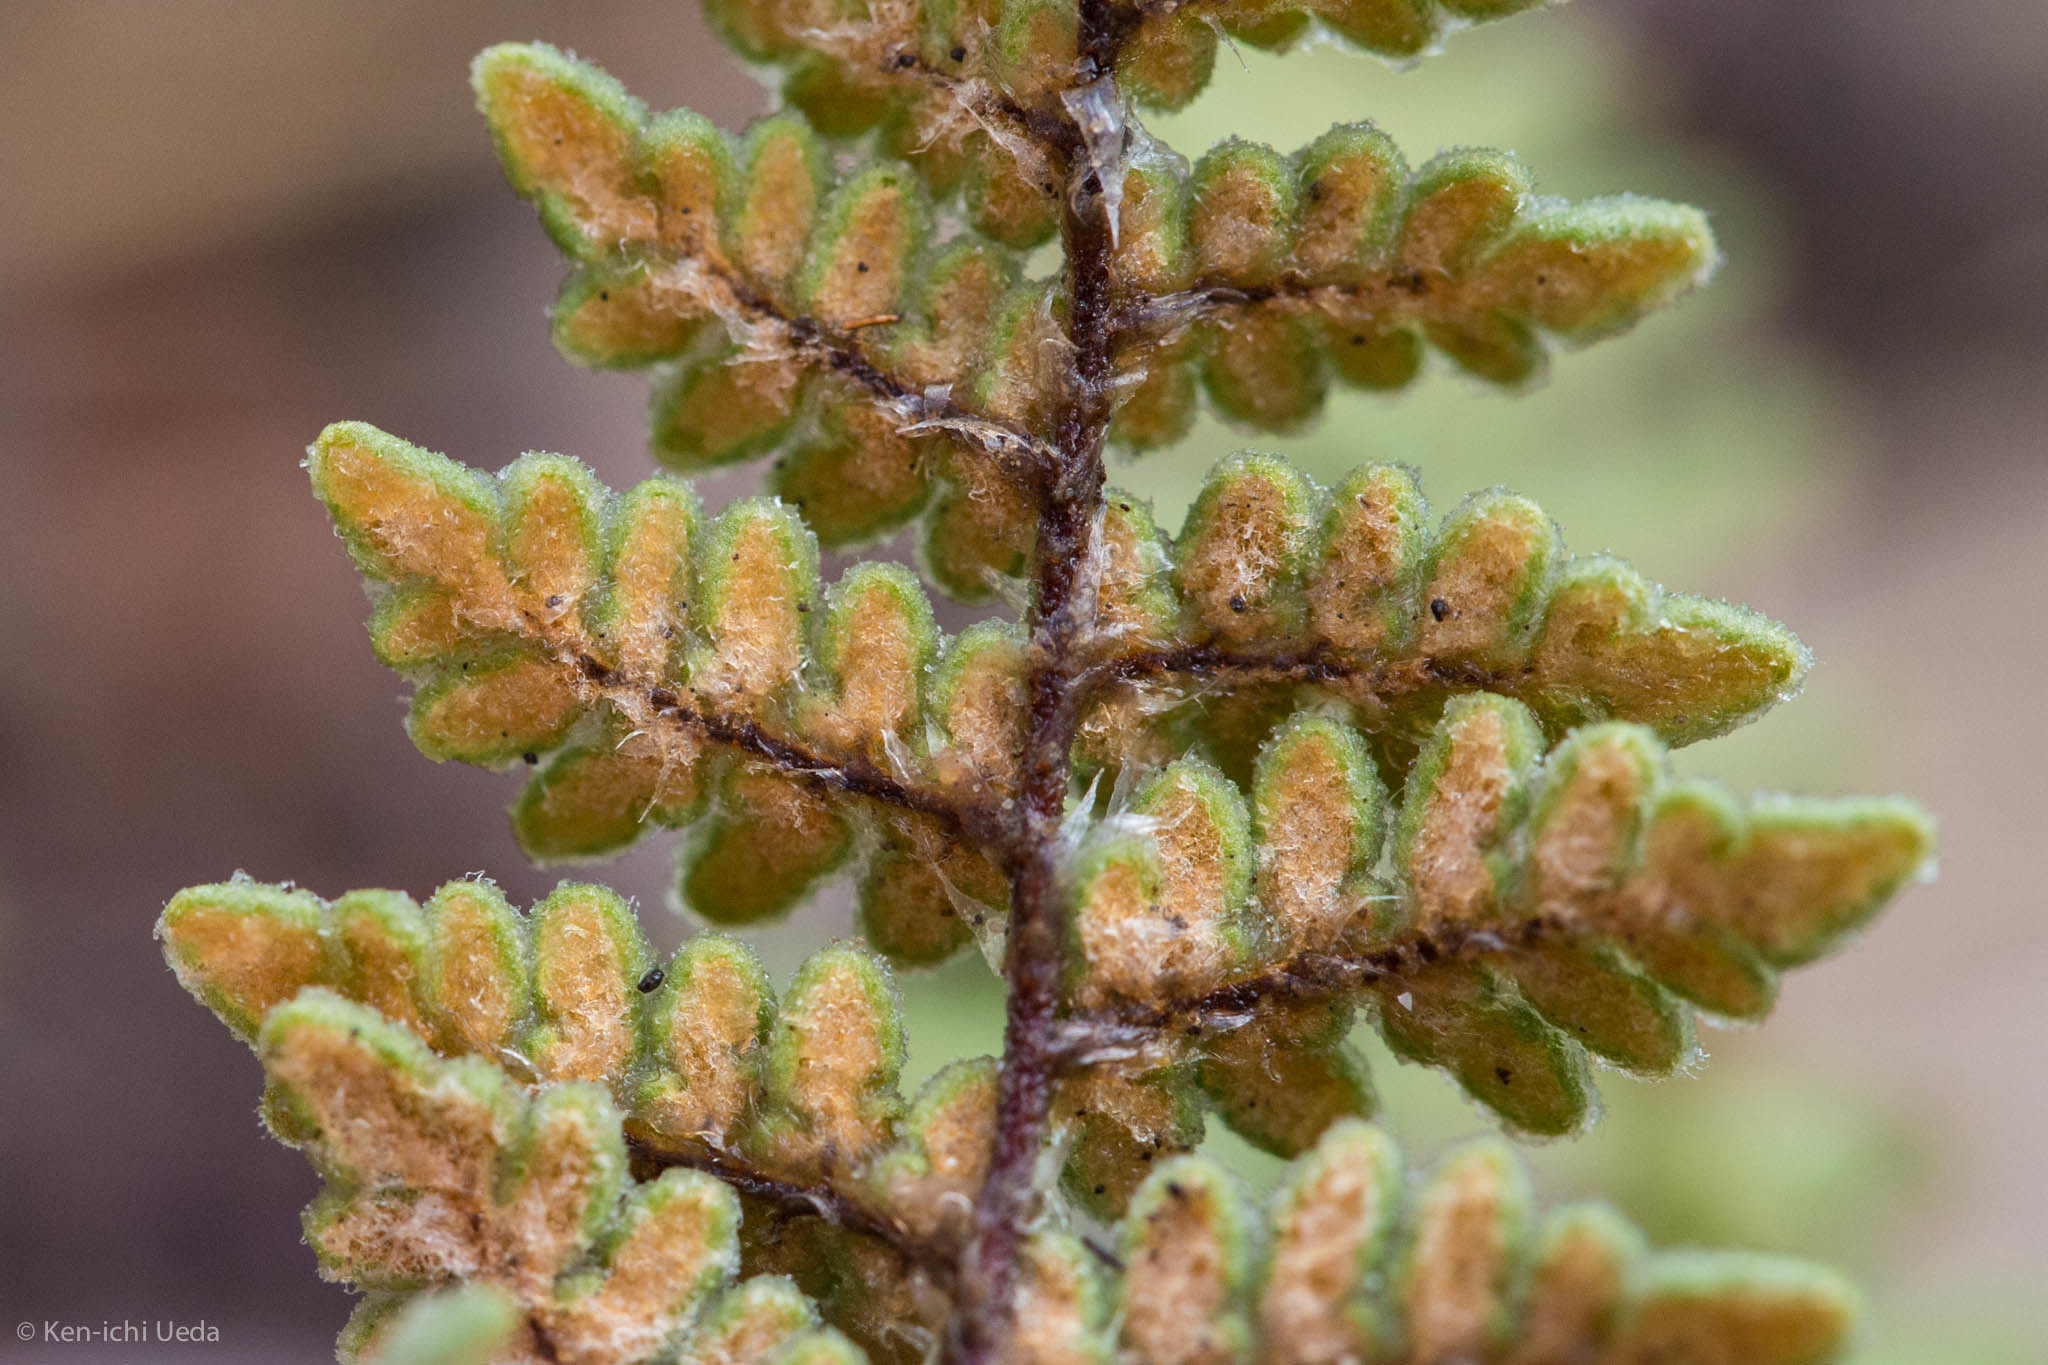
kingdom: Plantae
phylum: Tracheophyta
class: Polypodiopsida
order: Polypodiales
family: Pteridaceae
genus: Myriopteris
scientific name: Myriopteris rufa
